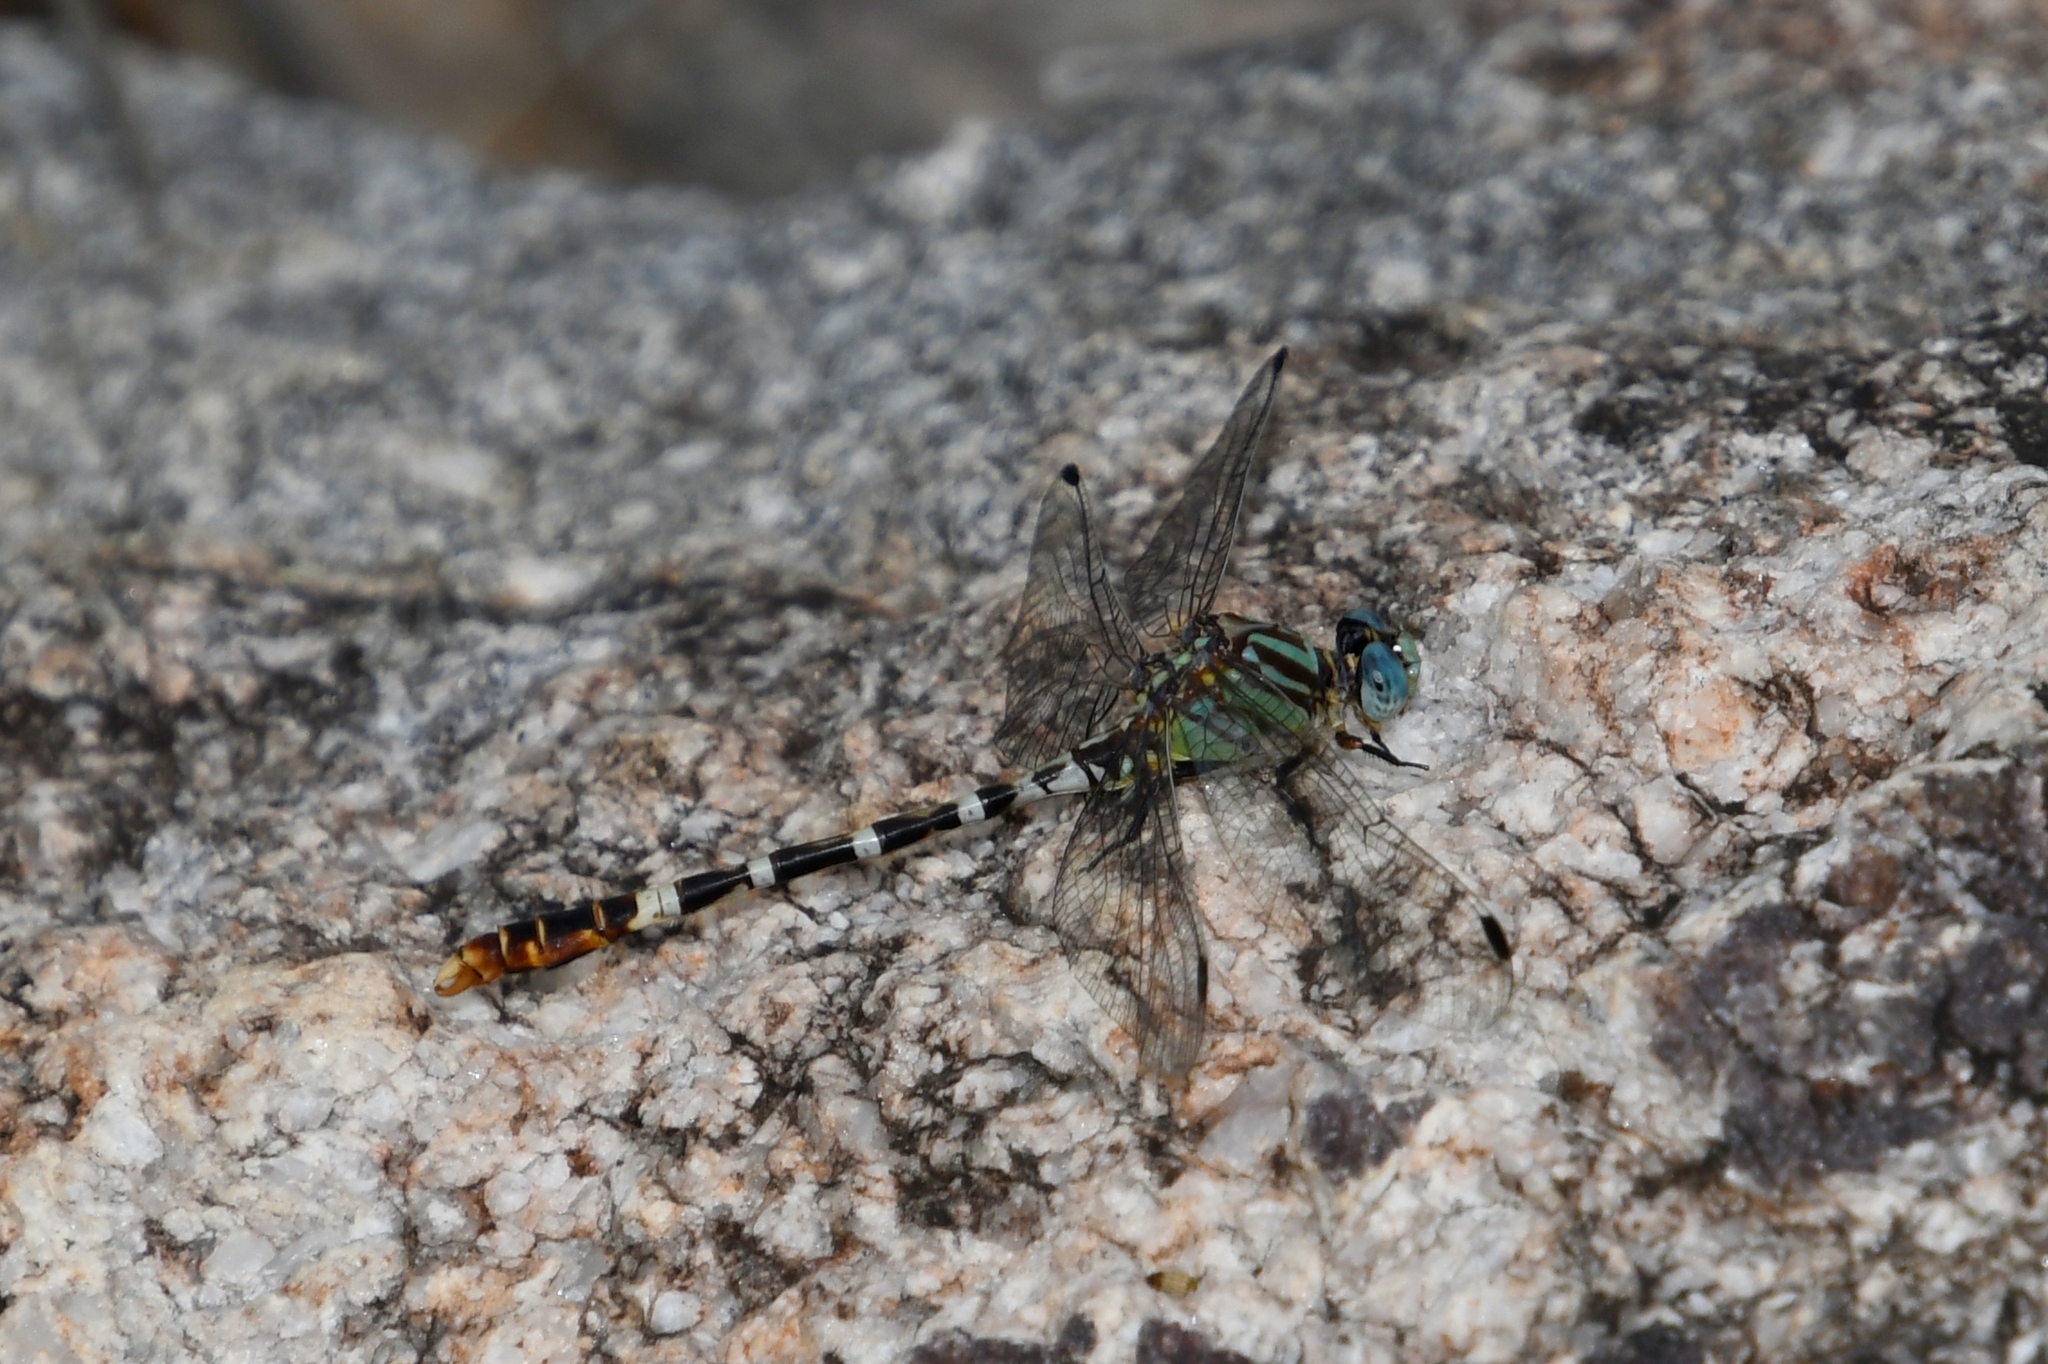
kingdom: Animalia
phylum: Arthropoda
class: Insecta
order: Odonata
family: Gomphidae
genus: Erpetogomphus
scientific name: Erpetogomphus lampropeltis
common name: Serpent ringtail
